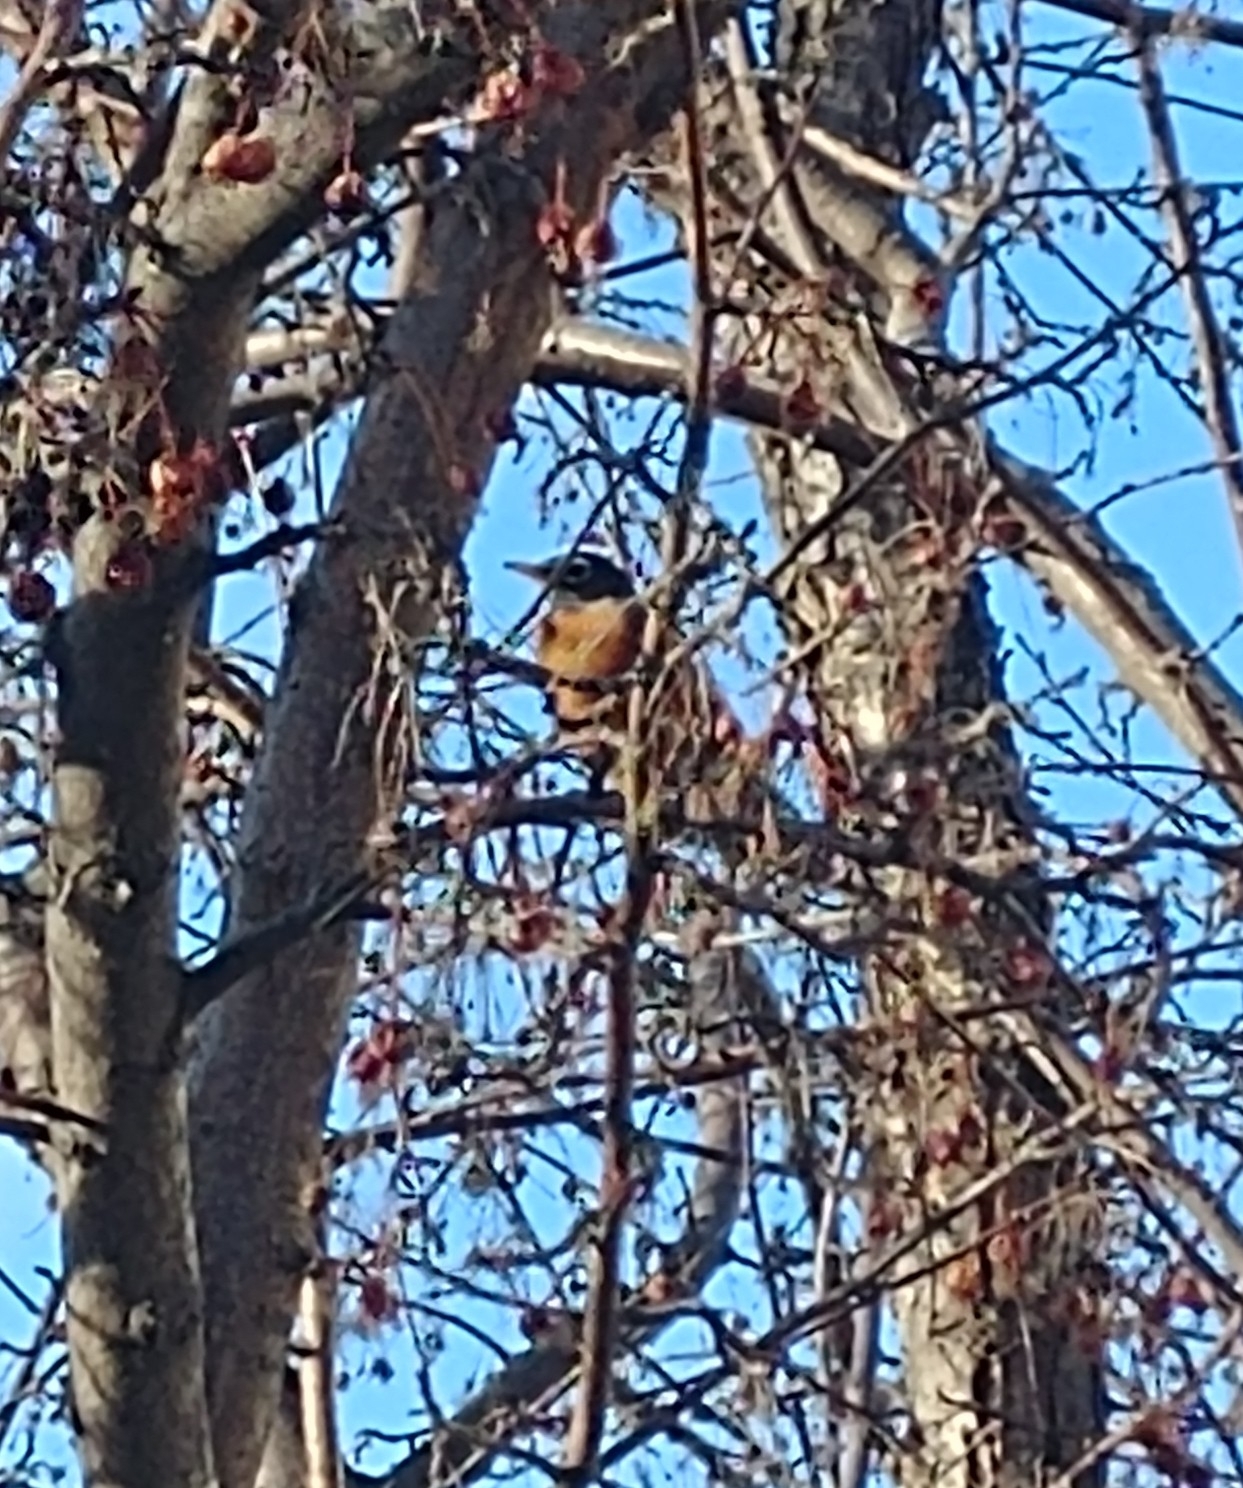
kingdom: Animalia
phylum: Chordata
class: Aves
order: Passeriformes
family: Turdidae
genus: Turdus
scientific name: Turdus migratorius
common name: American robin
